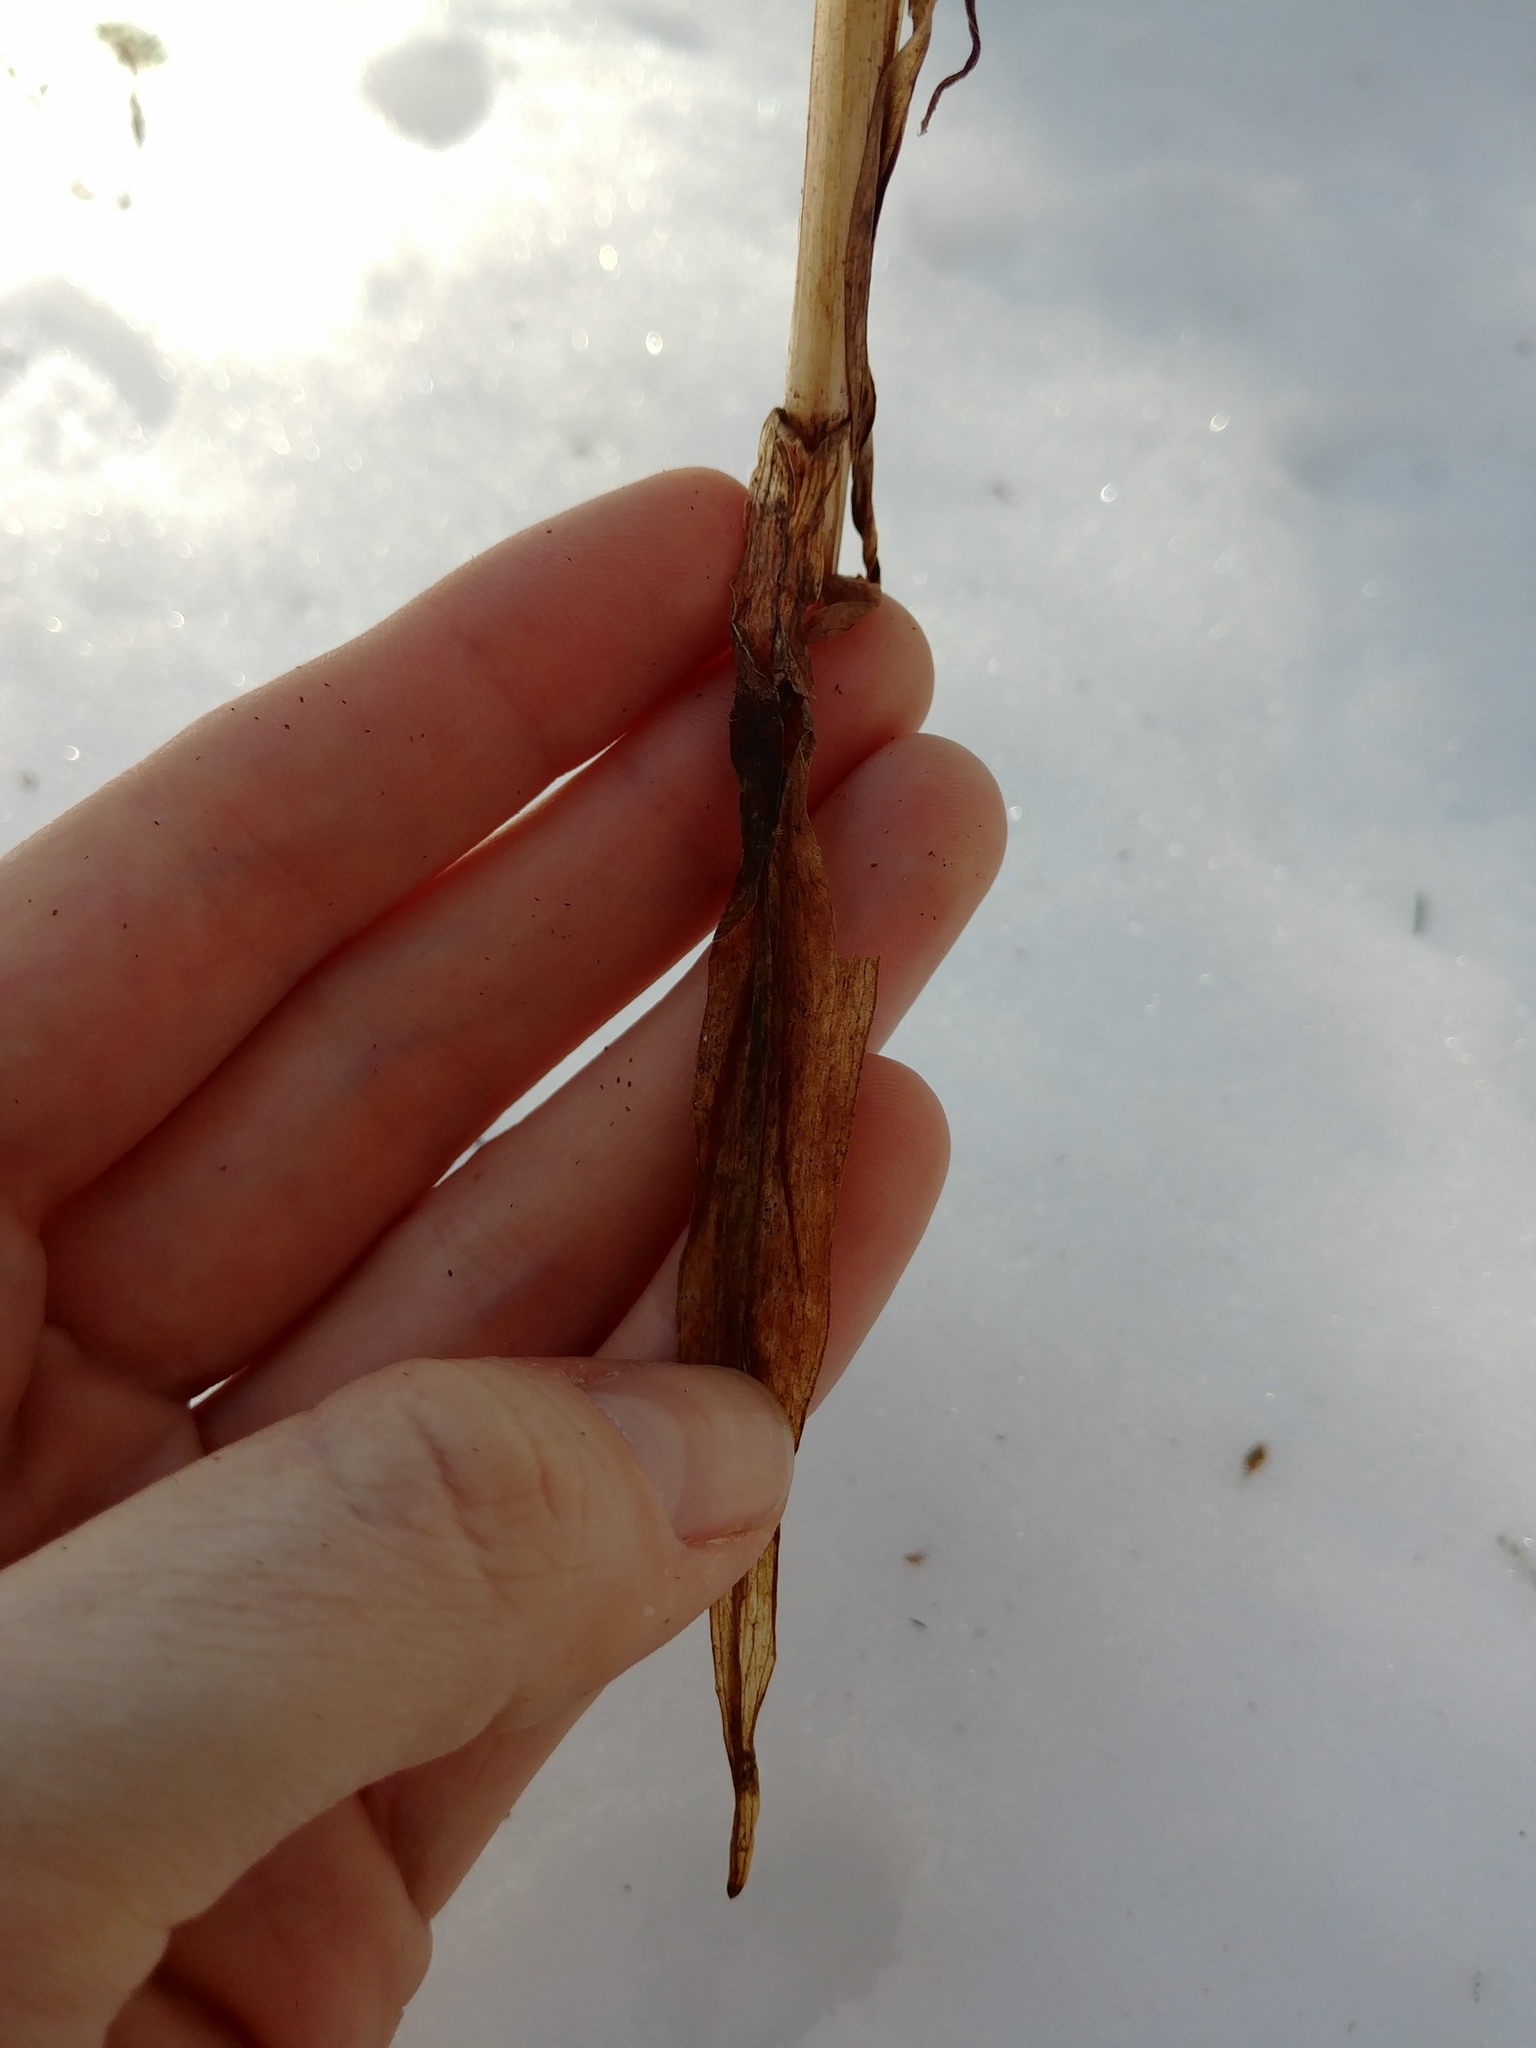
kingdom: Plantae
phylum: Tracheophyta
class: Liliopsida
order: Asparagales
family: Orchidaceae
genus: Platanthera
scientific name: Platanthera grandiflora
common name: Greater purple fringed orchid
